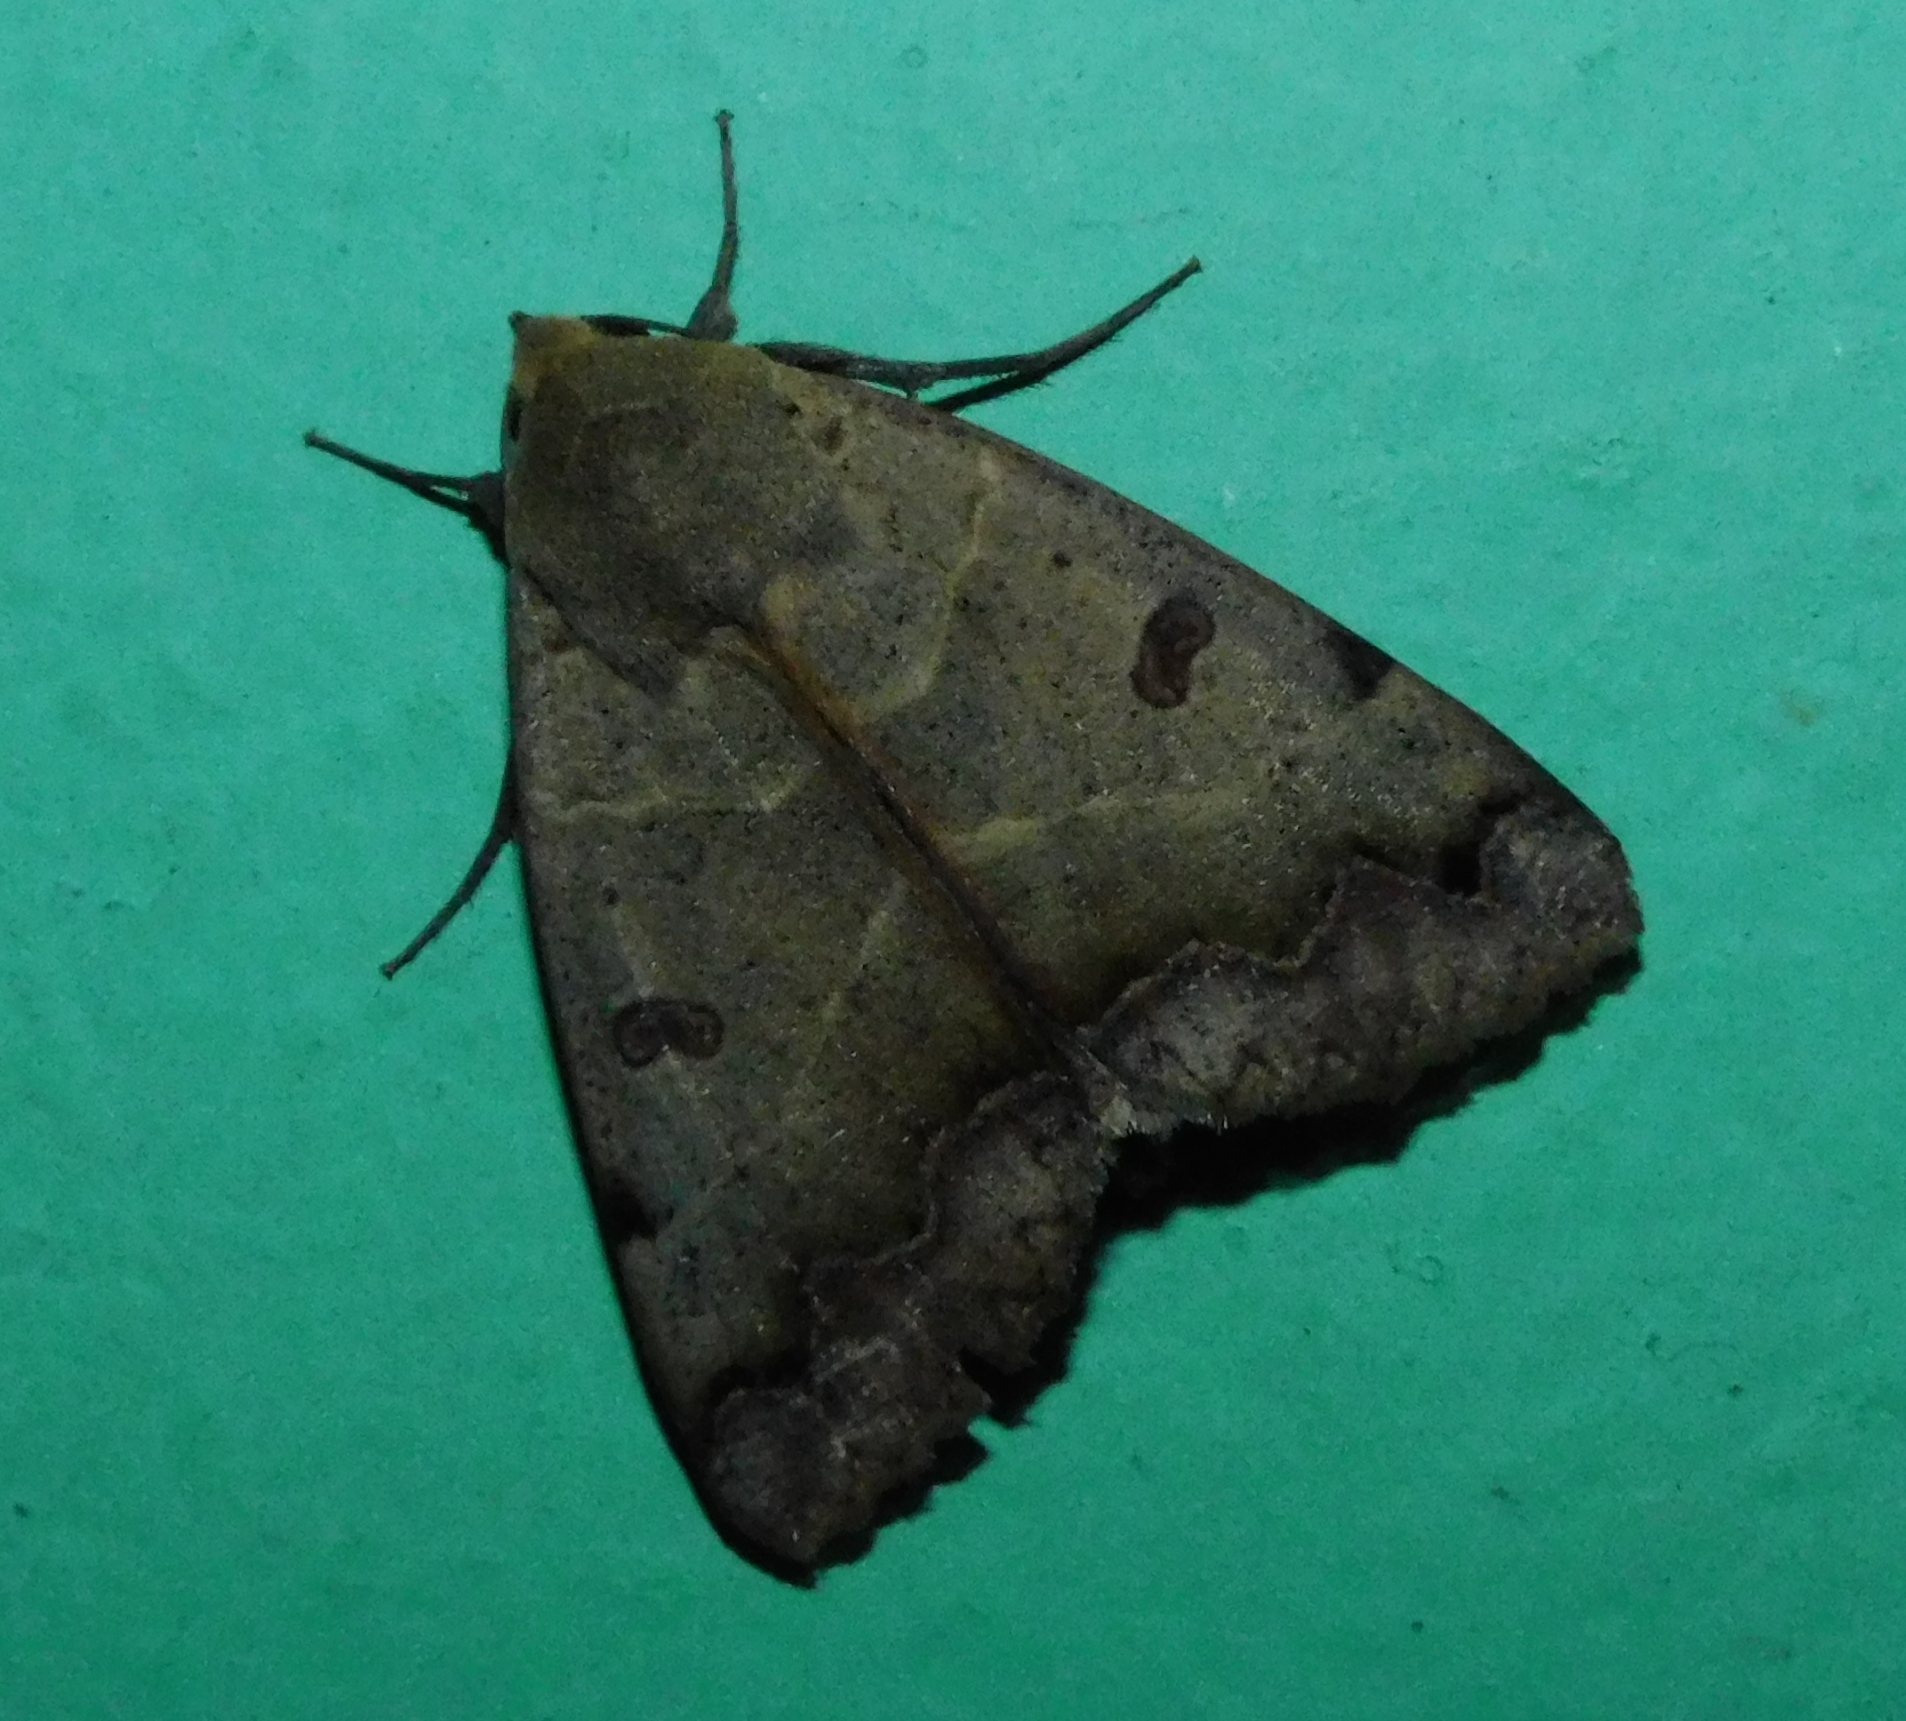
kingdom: Animalia
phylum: Arthropoda
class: Insecta
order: Lepidoptera
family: Erebidae
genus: Ophiusa
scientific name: Ophiusa tirhaca
